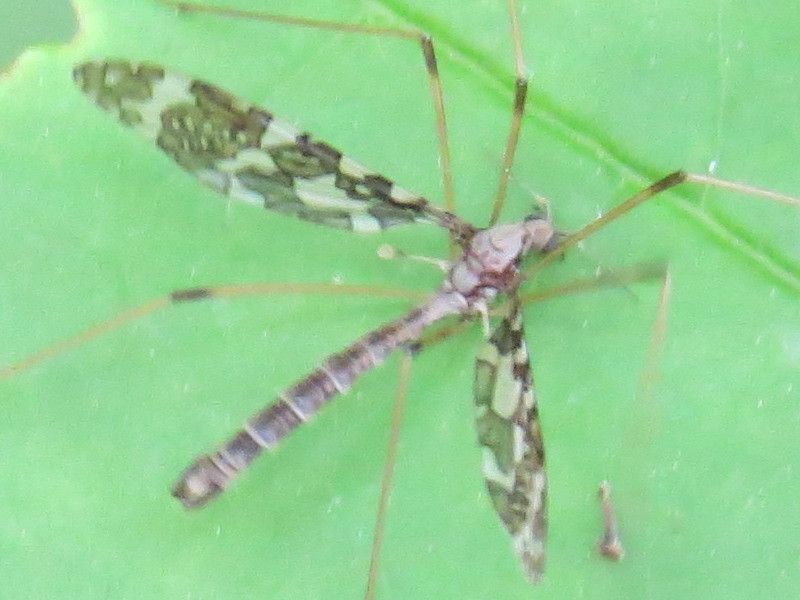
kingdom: Animalia
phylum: Arthropoda
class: Insecta
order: Diptera
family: Limoniidae
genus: Epiphragma
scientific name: Epiphragma fasciapenne
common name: Band-winged crane fly
